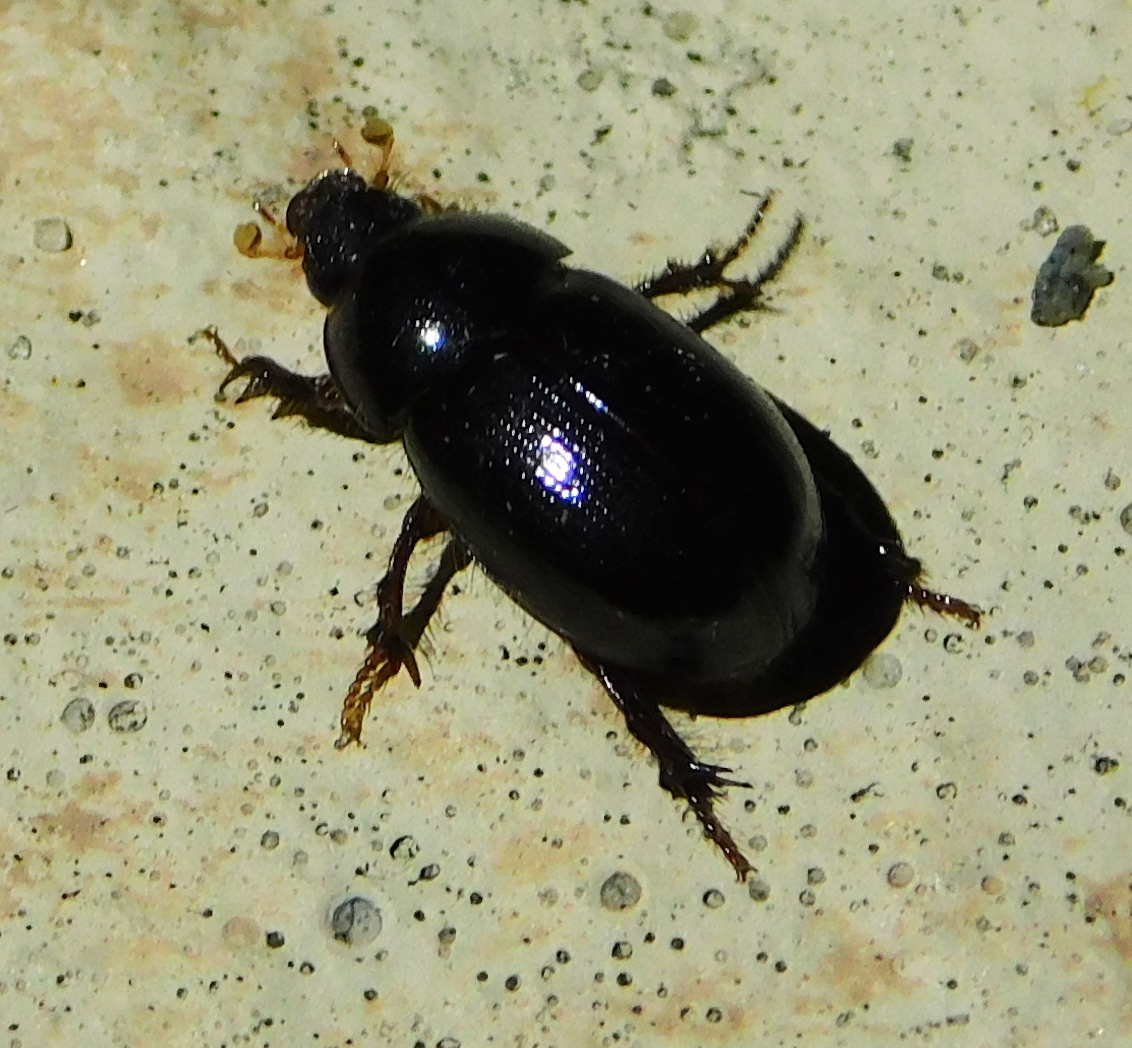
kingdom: Animalia
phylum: Arthropoda
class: Insecta
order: Coleoptera
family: Hybosoridae
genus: Hybosorus
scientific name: Hybosorus illigeri
